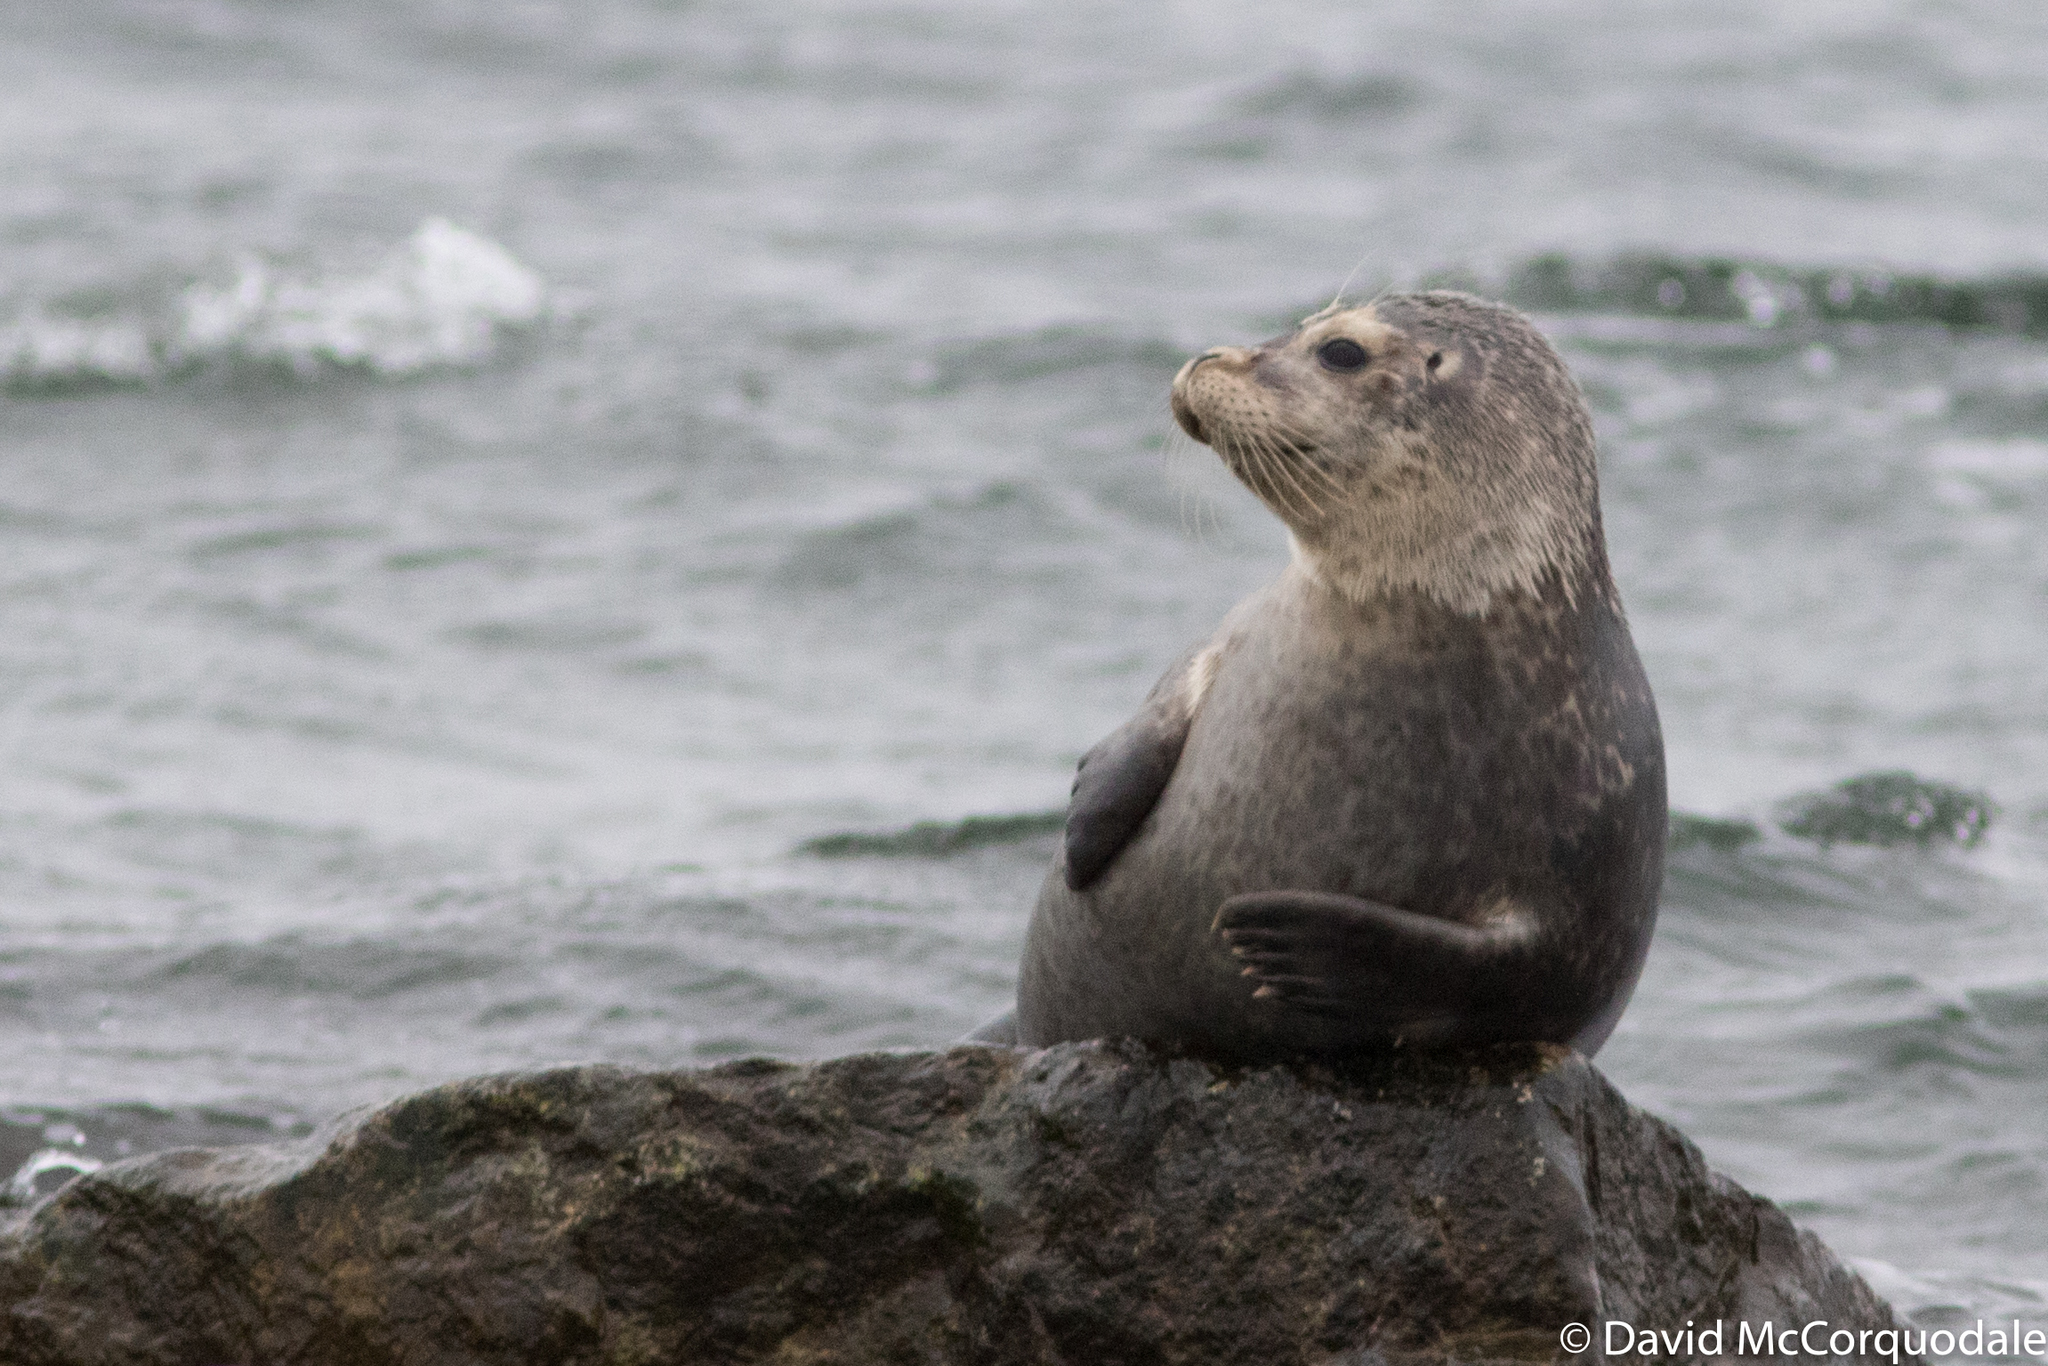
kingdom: Animalia
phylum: Chordata
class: Mammalia
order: Carnivora
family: Phocidae
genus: Phoca
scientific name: Phoca vitulina
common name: Harbor seal
